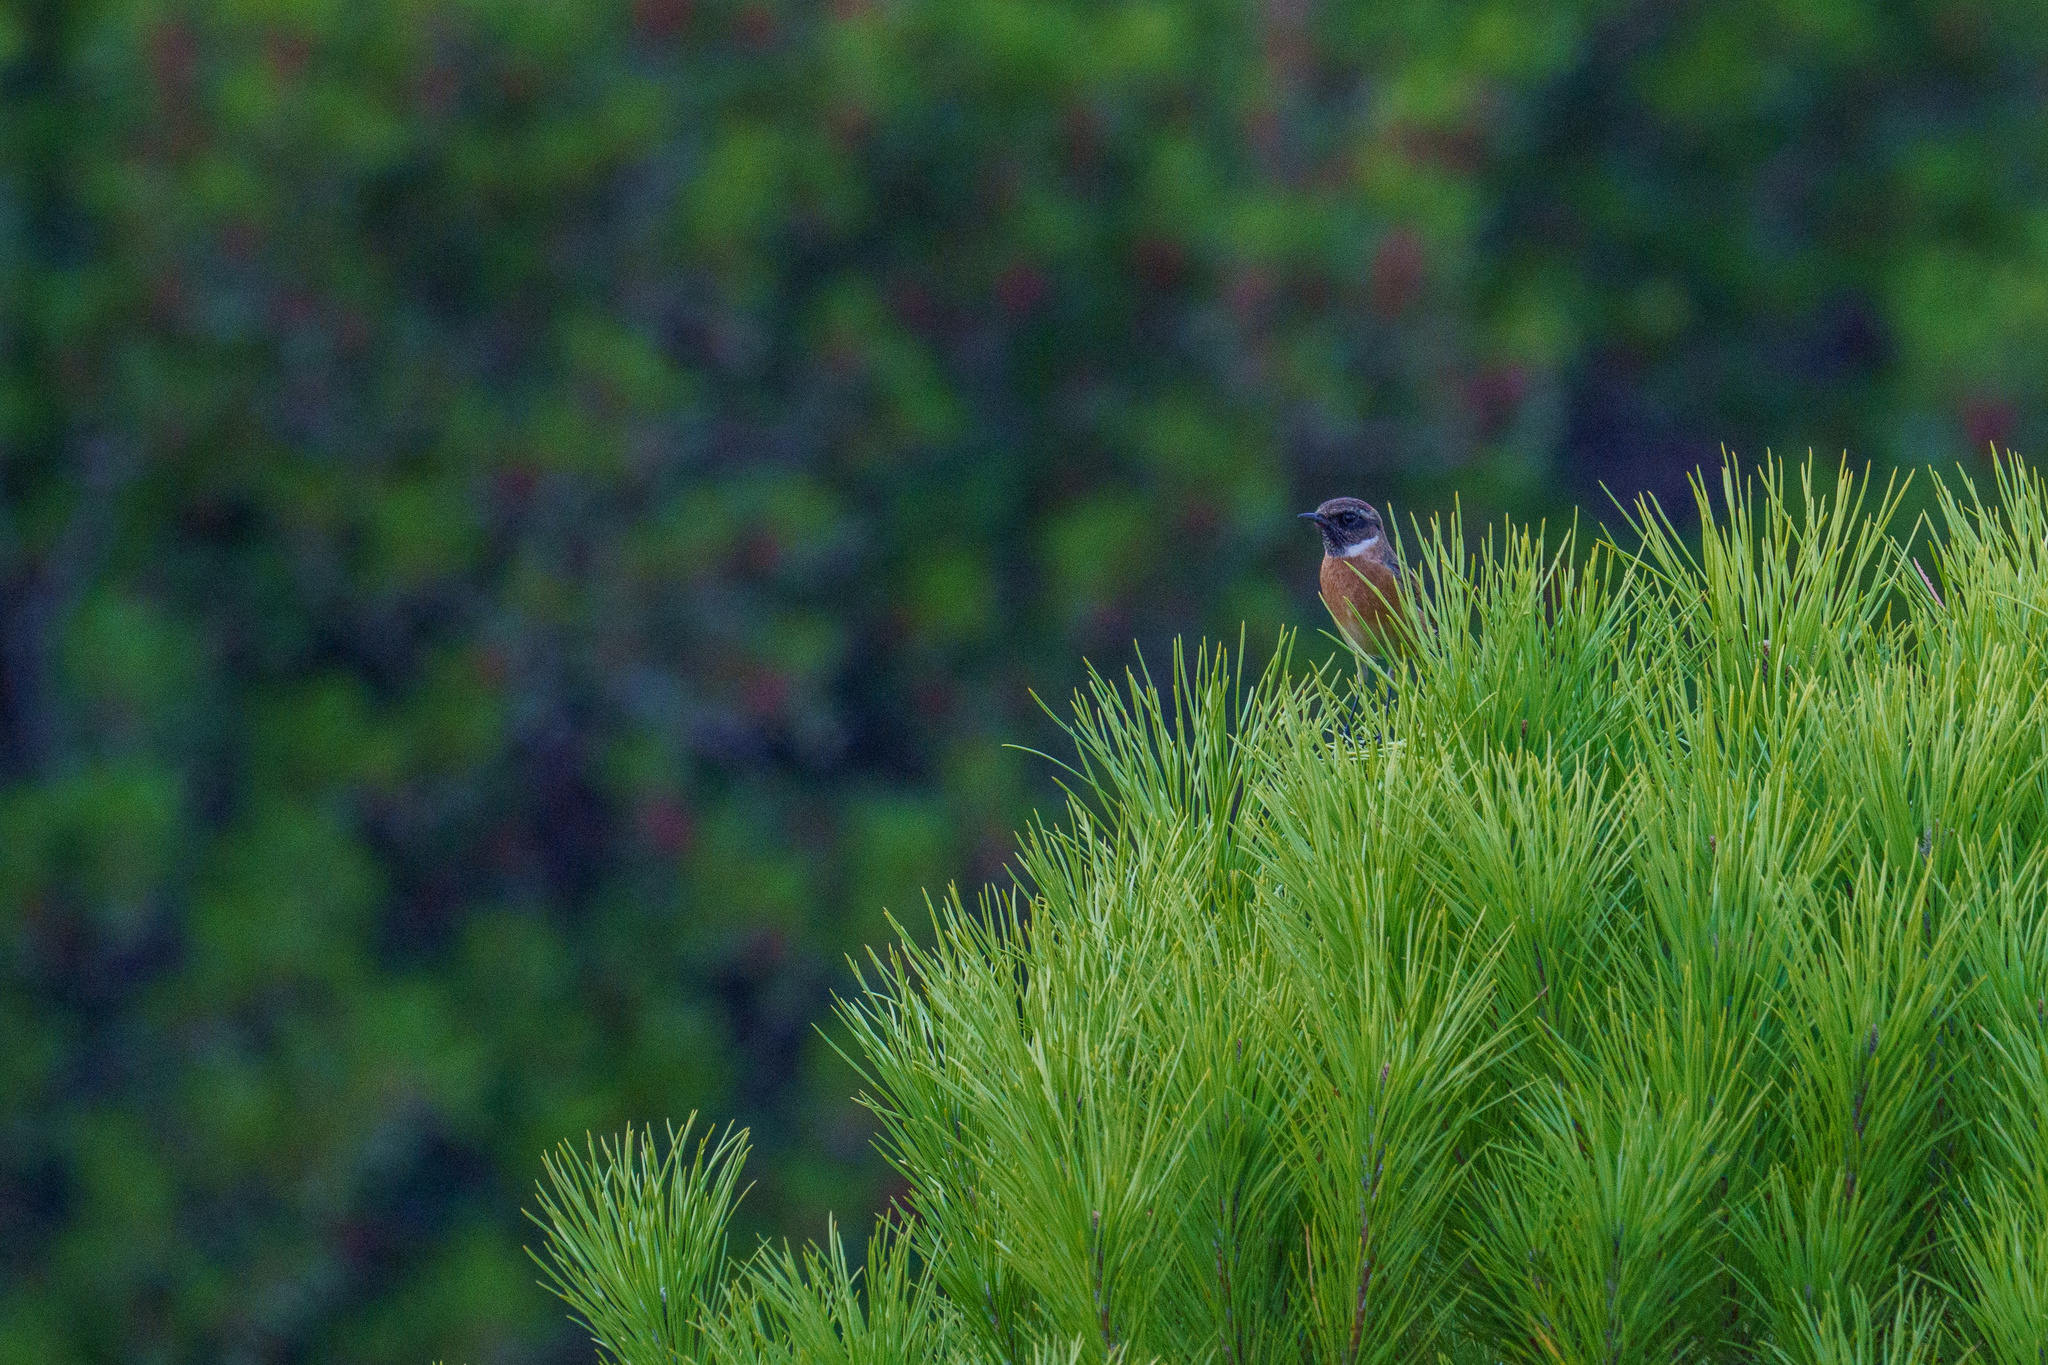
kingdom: Animalia
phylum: Chordata
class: Aves
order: Passeriformes
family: Muscicapidae
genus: Saxicola
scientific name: Saxicola rubicola
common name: European stonechat
